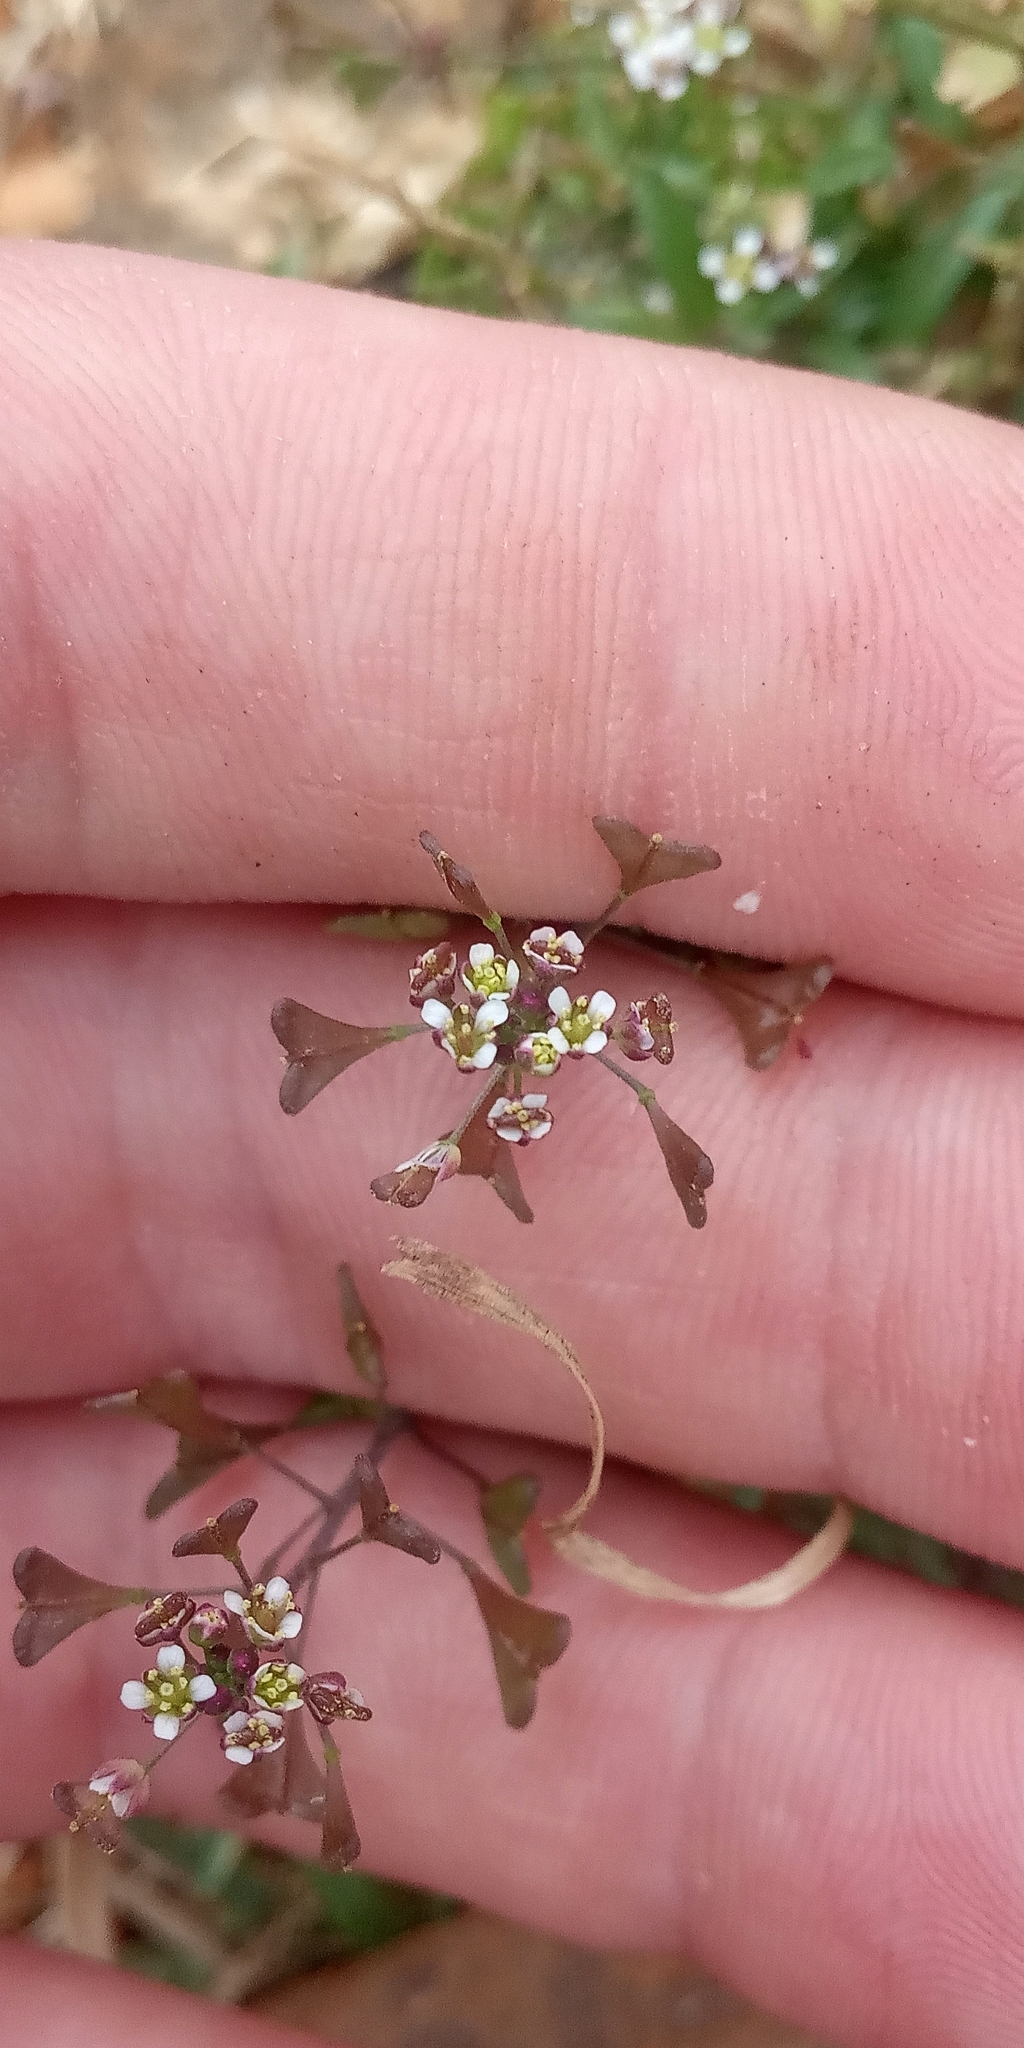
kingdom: Plantae
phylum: Tracheophyta
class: Magnoliopsida
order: Brassicales
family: Brassicaceae
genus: Capsella
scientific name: Capsella bursa-pastoris
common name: Shepherd's purse
